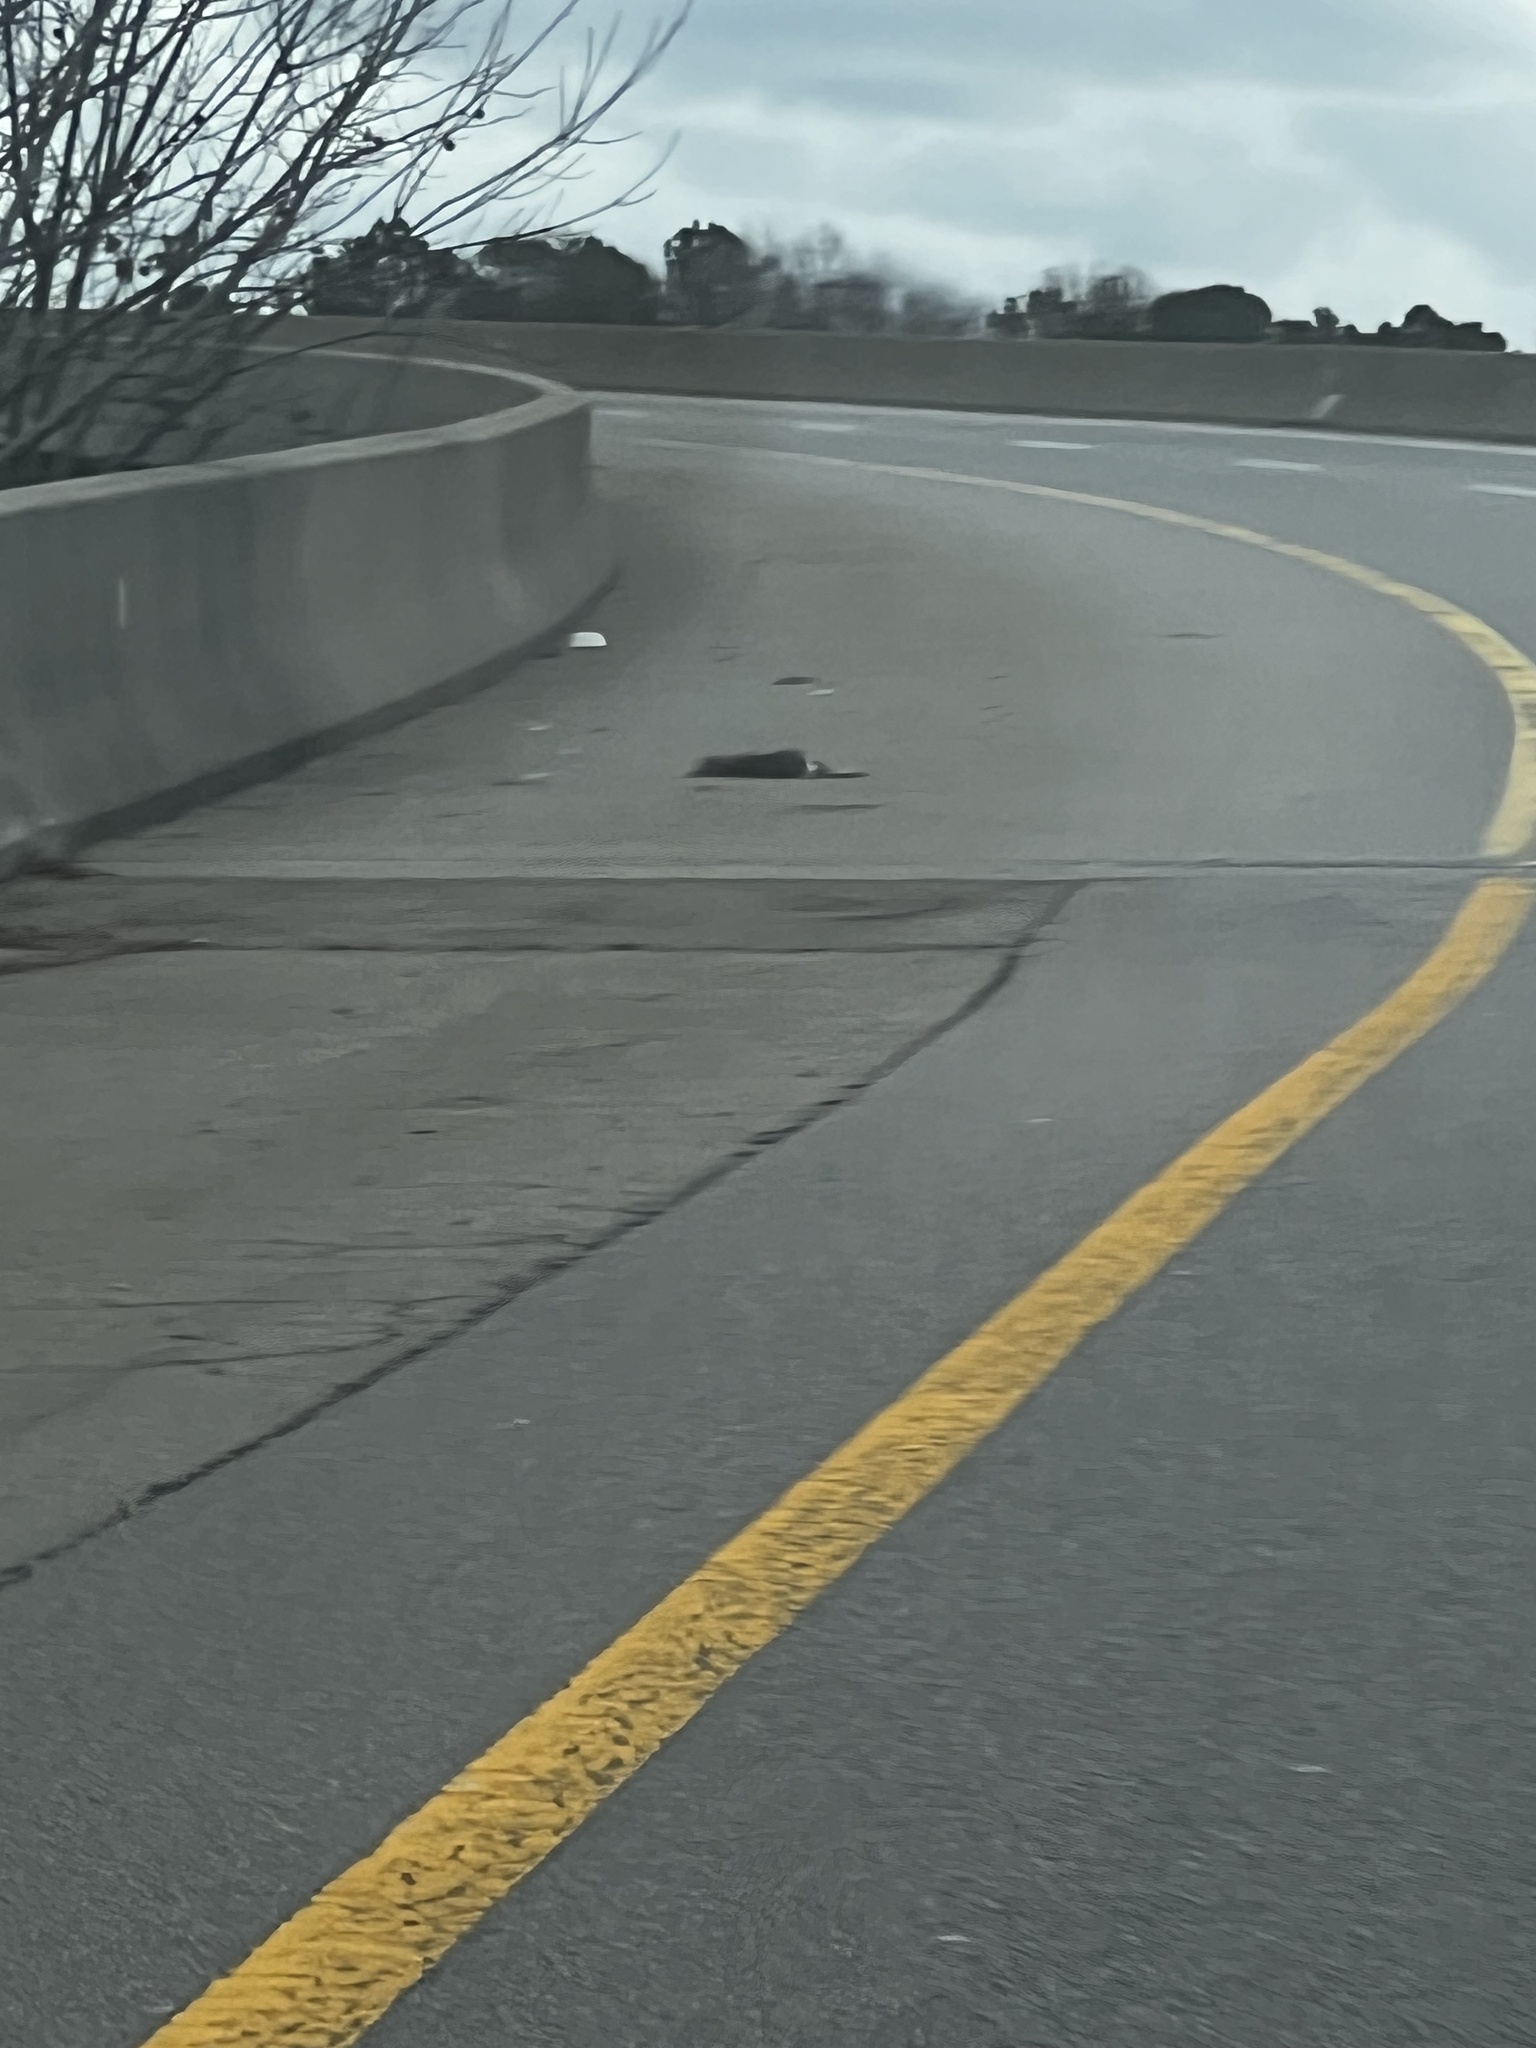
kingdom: Animalia
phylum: Chordata
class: Mammalia
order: Lagomorpha
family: Leporidae
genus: Sylvilagus
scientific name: Sylvilagus floridanus
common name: Eastern cottontail
